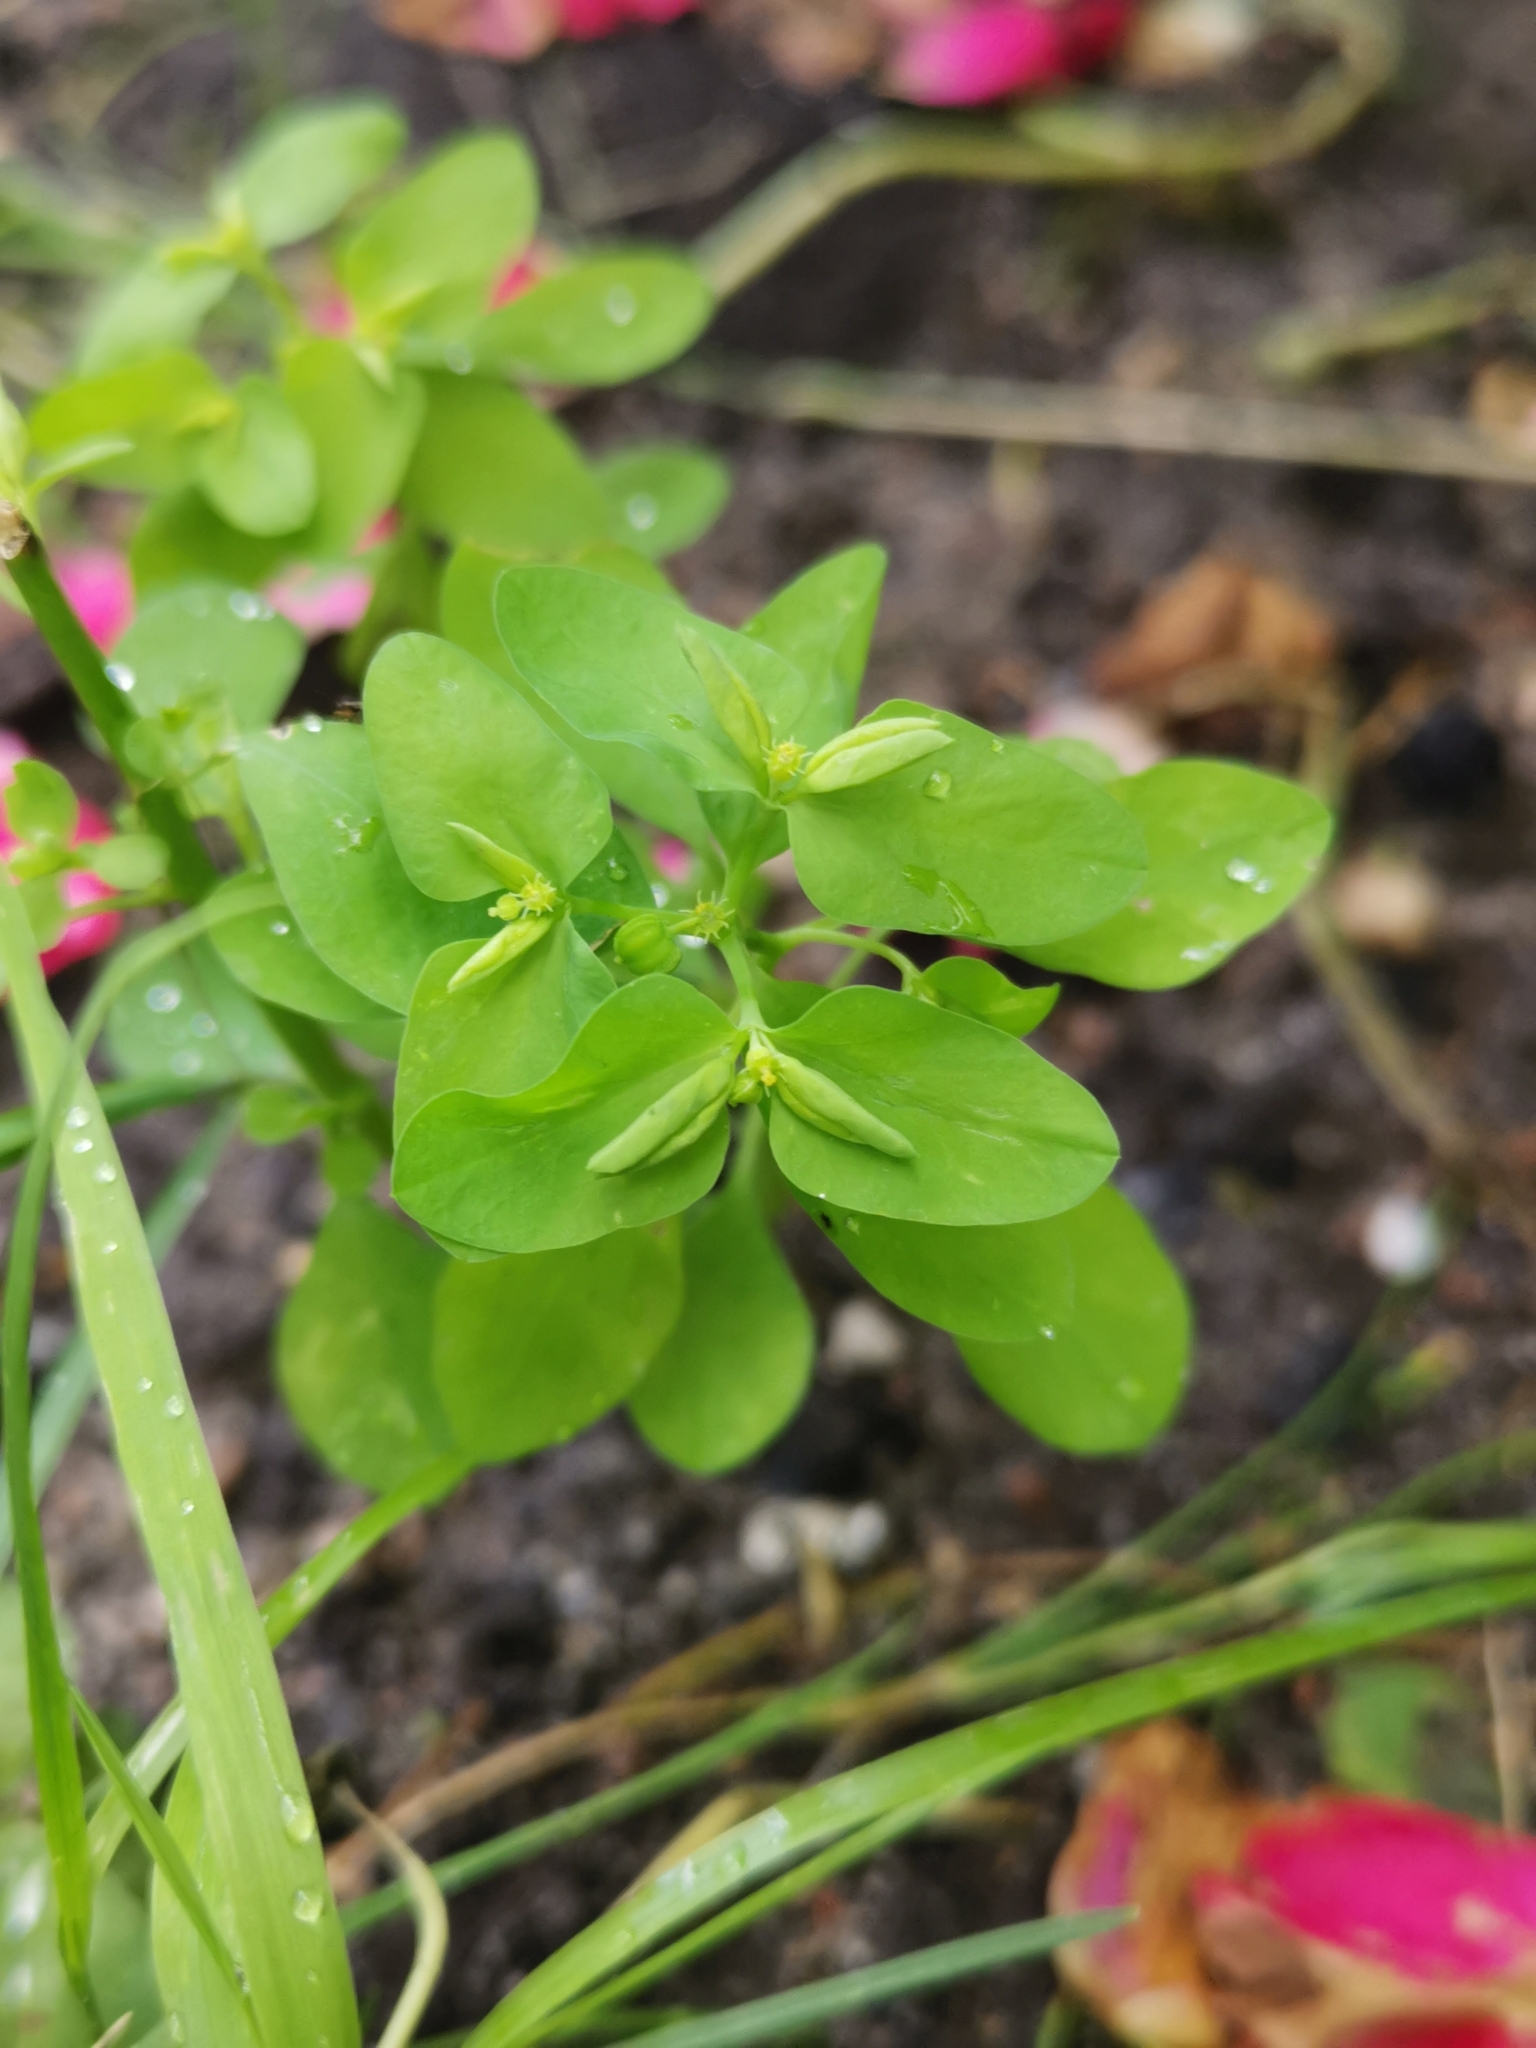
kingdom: Plantae
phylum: Tracheophyta
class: Magnoliopsida
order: Malpighiales
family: Euphorbiaceae
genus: Euphorbia
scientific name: Euphorbia peplus
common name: Petty spurge
